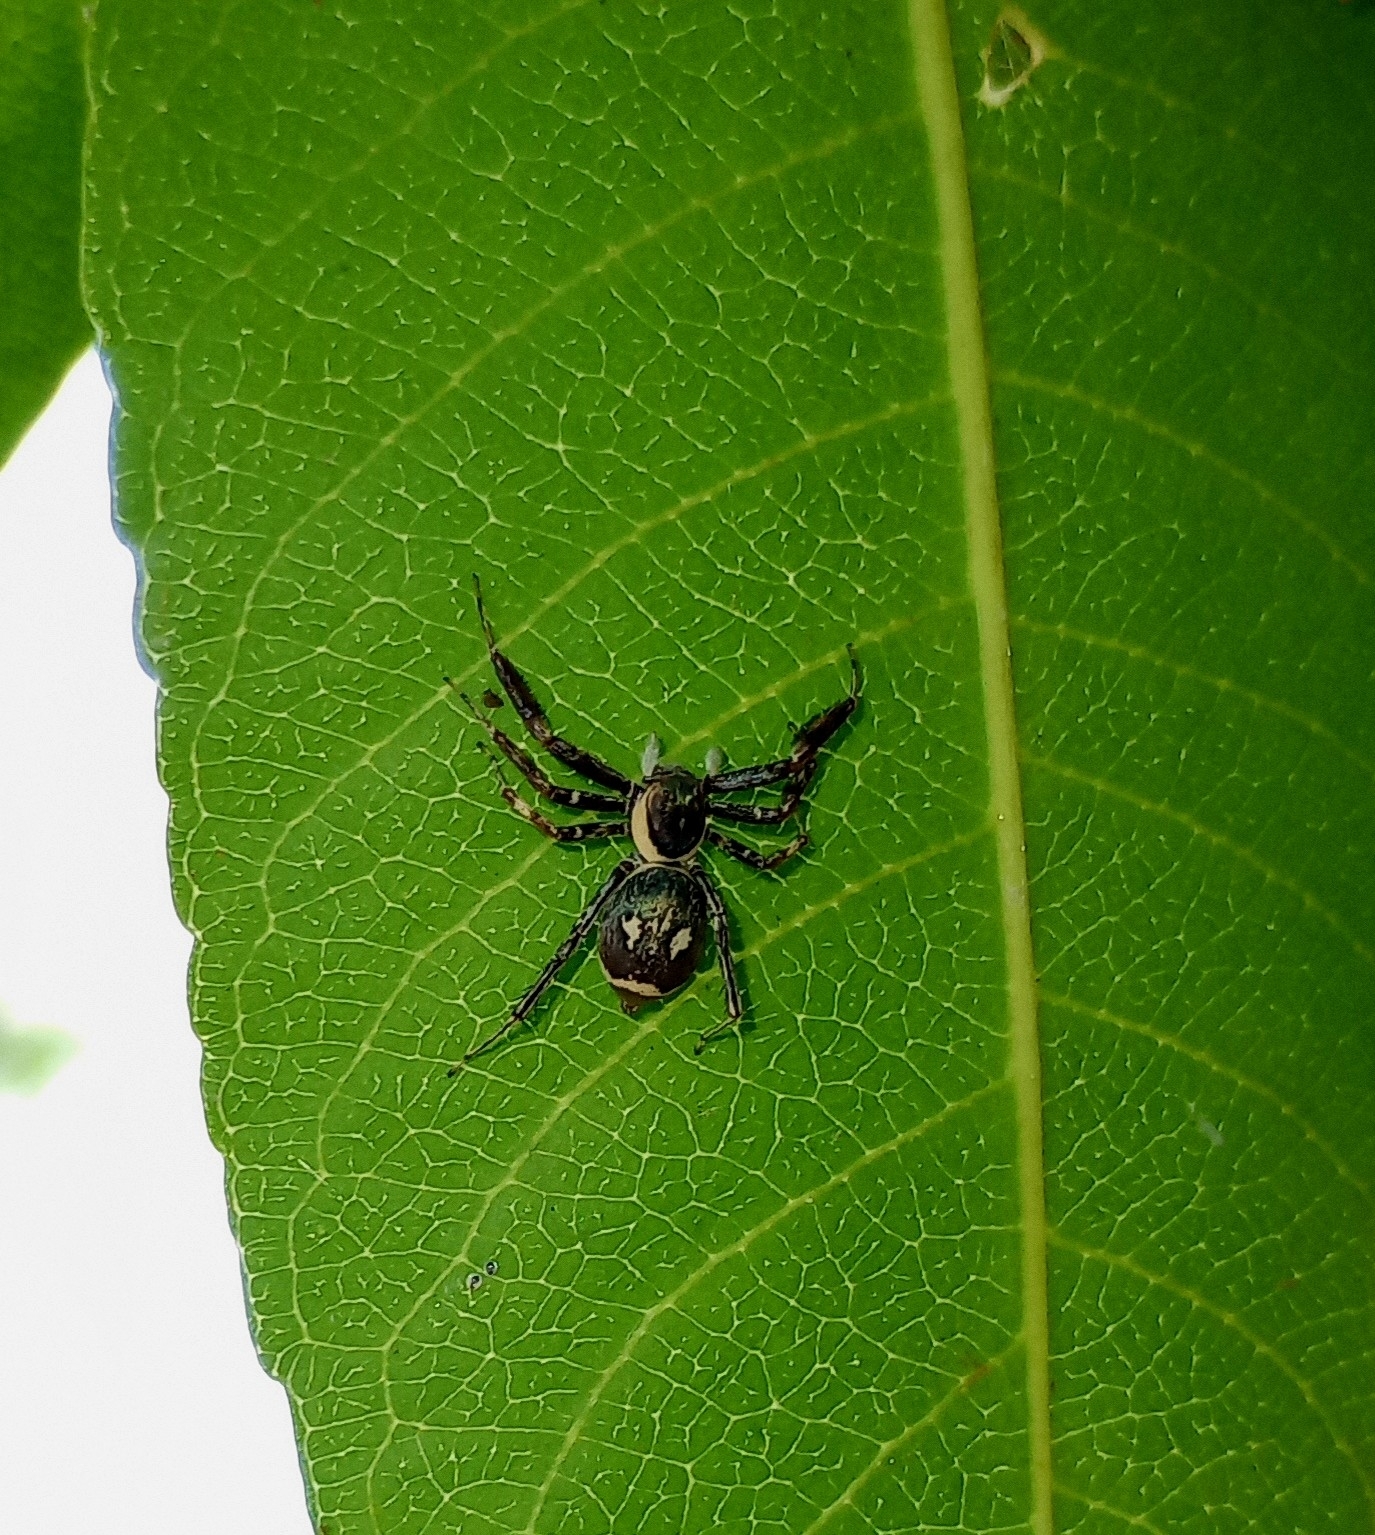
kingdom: Animalia
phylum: Arthropoda
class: Arachnida
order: Araneae
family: Salticidae
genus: Brettus
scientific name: Brettus cingulatus
